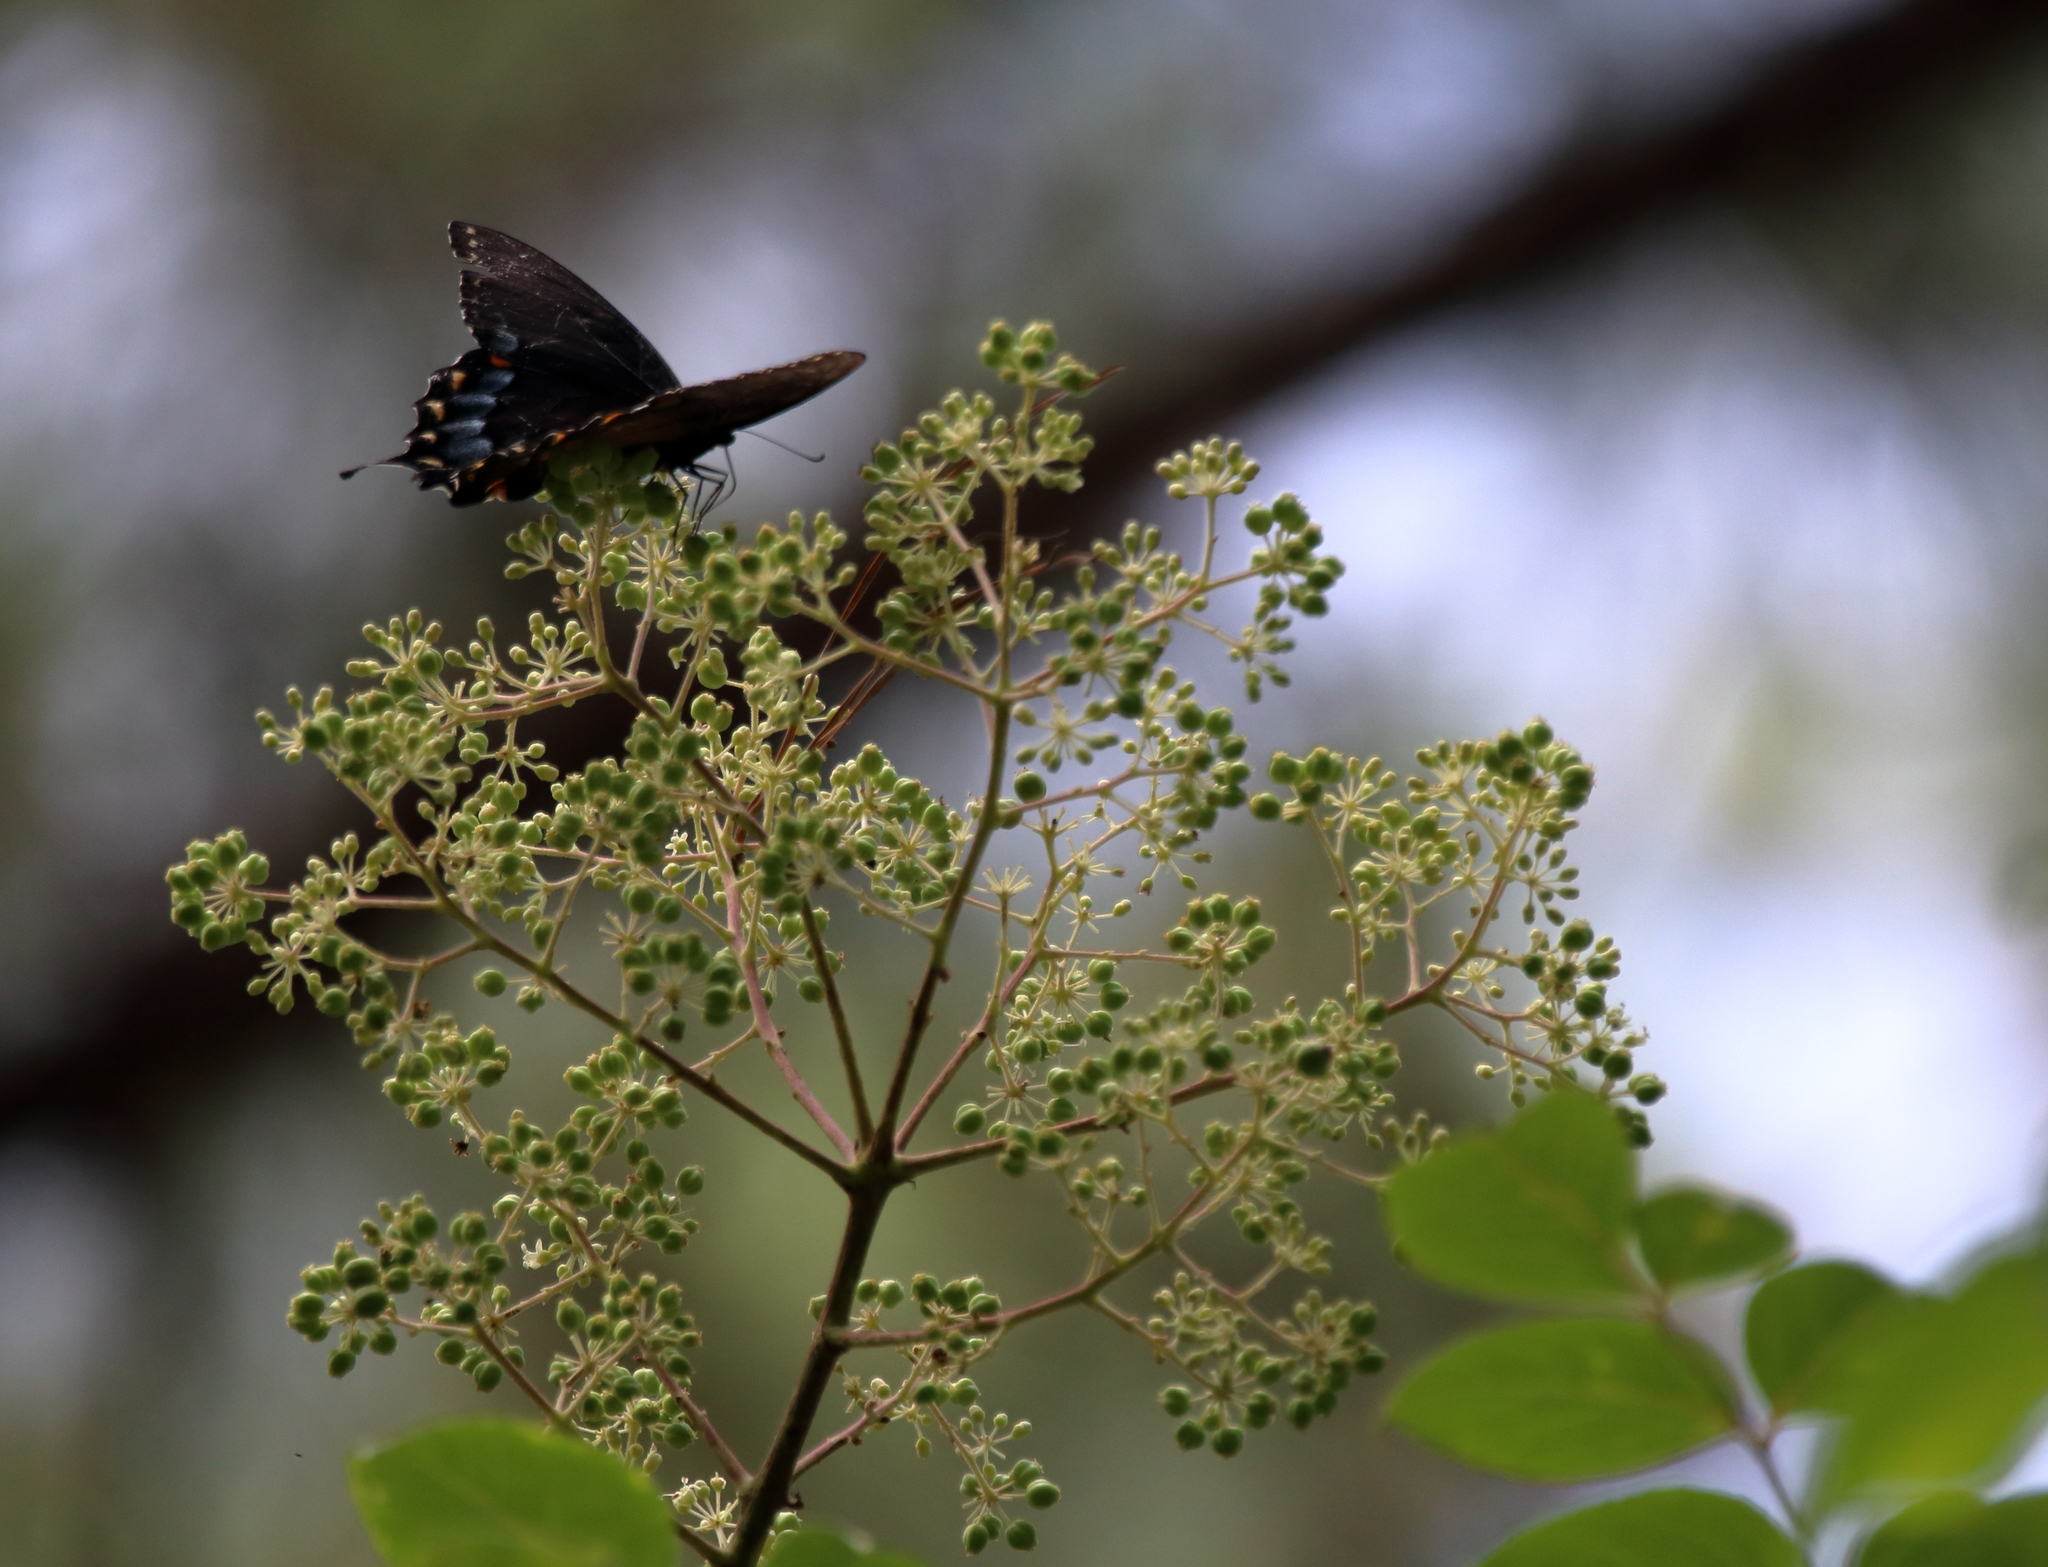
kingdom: Animalia
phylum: Arthropoda
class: Insecta
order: Lepidoptera
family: Papilionidae
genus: Papilio
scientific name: Papilio glaucus
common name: Tiger swallowtail
